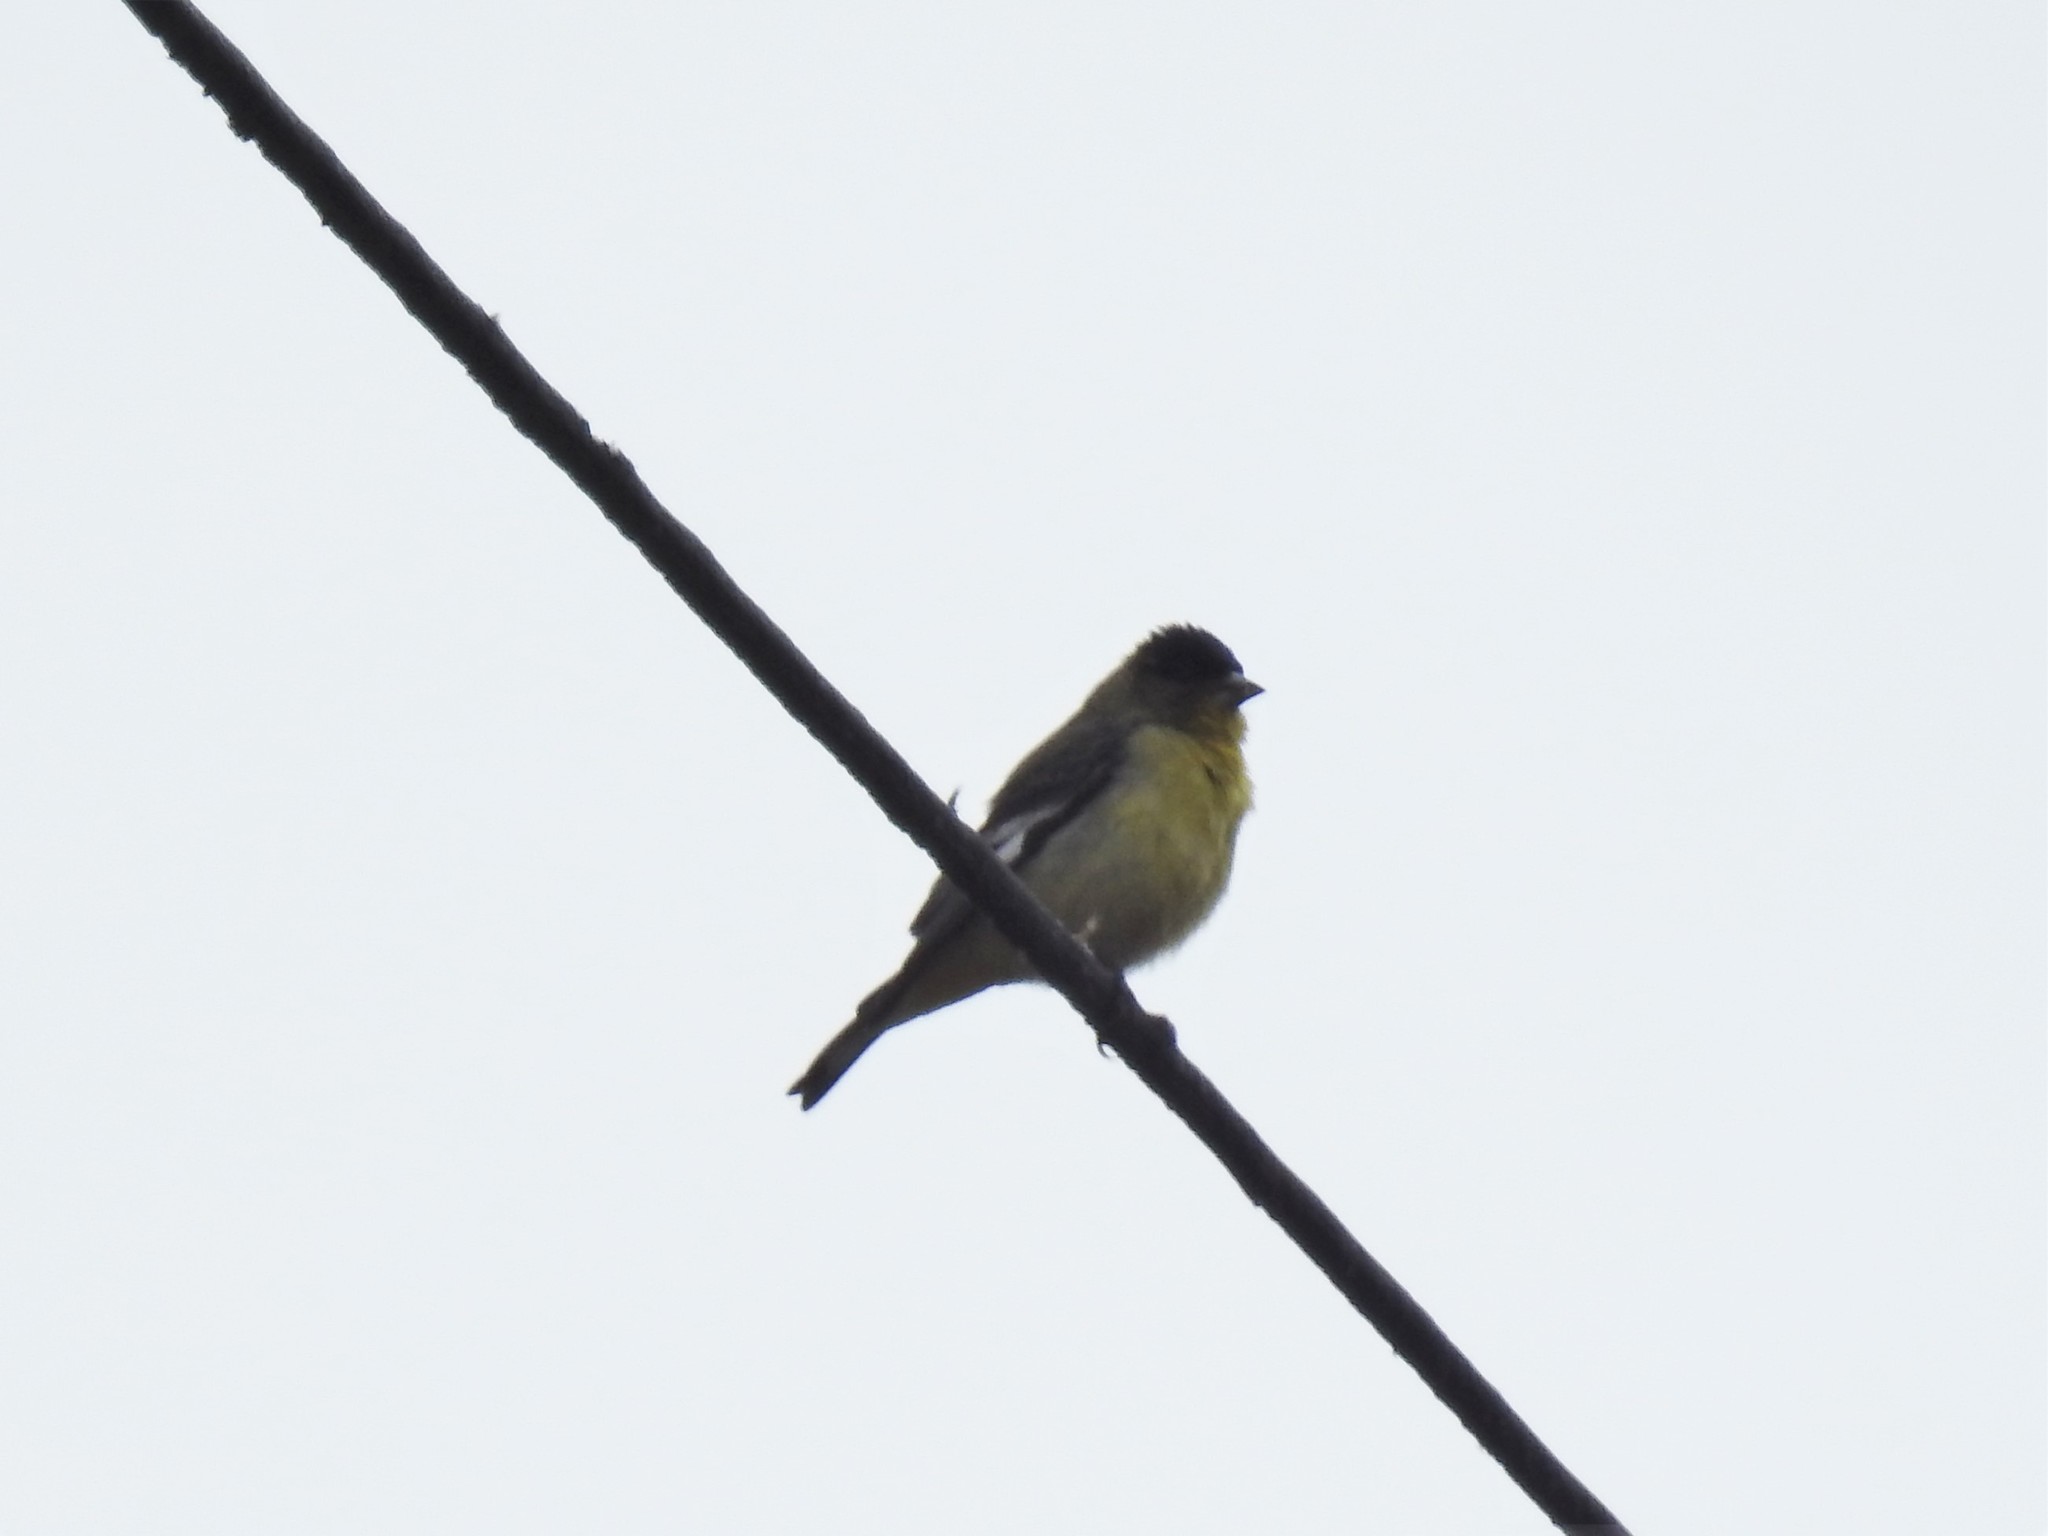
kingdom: Animalia
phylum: Chordata
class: Aves
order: Passeriformes
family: Fringillidae
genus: Spinus
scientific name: Spinus psaltria
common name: Lesser goldfinch
